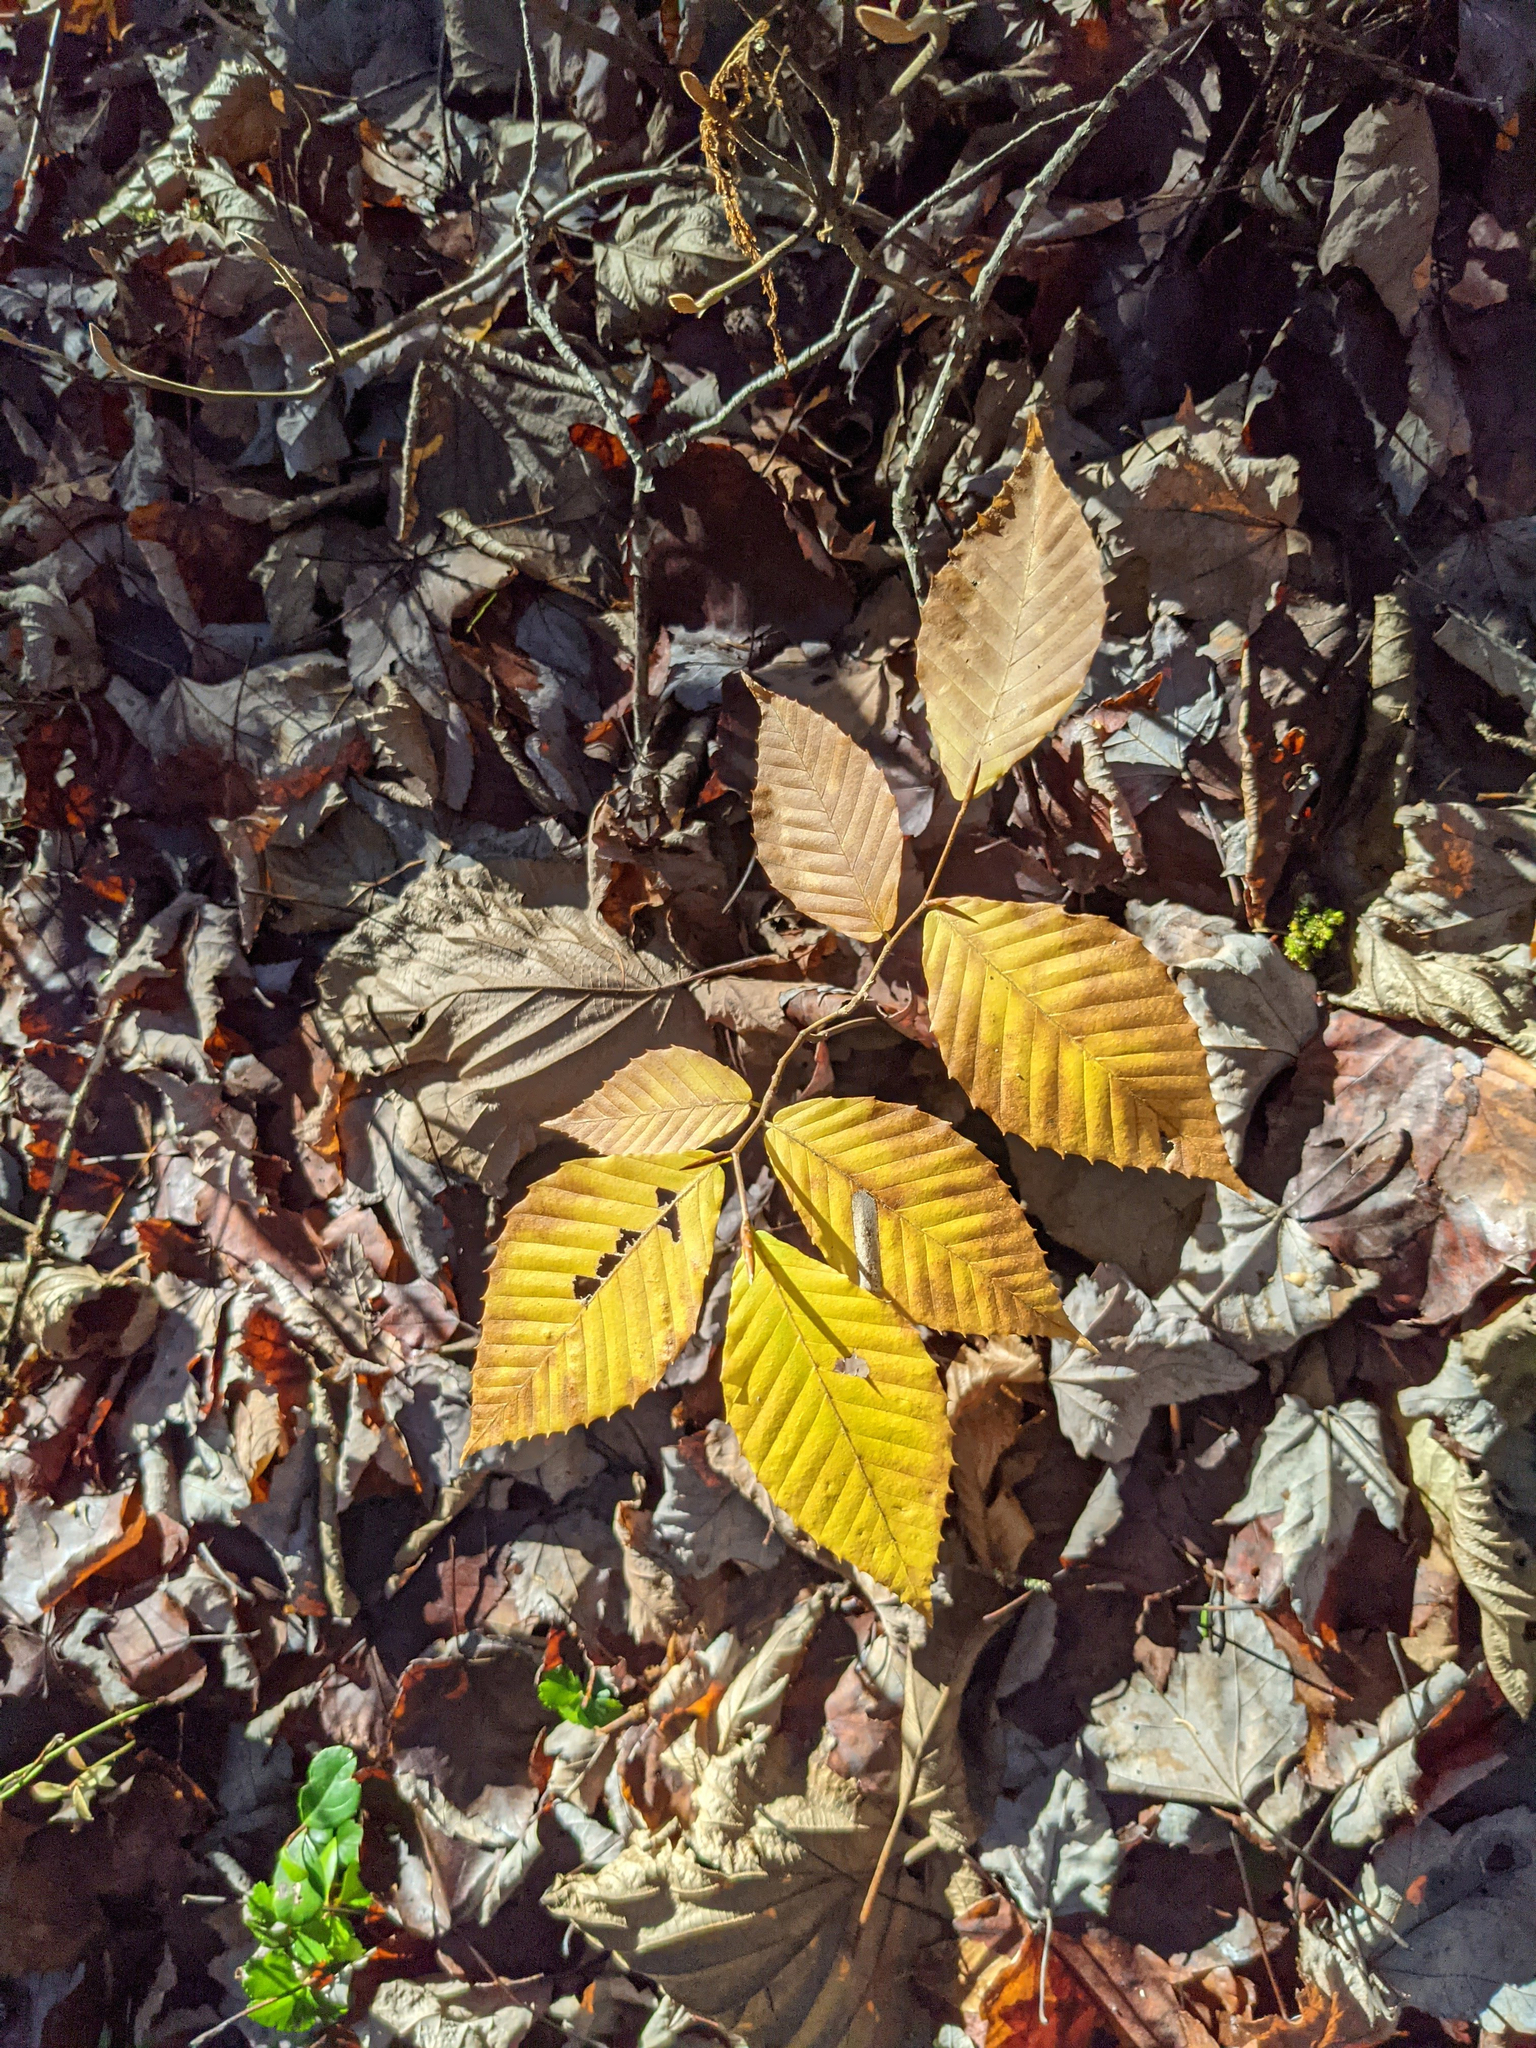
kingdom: Plantae
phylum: Tracheophyta
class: Magnoliopsida
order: Fagales
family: Fagaceae
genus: Fagus
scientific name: Fagus grandifolia
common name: American beech
